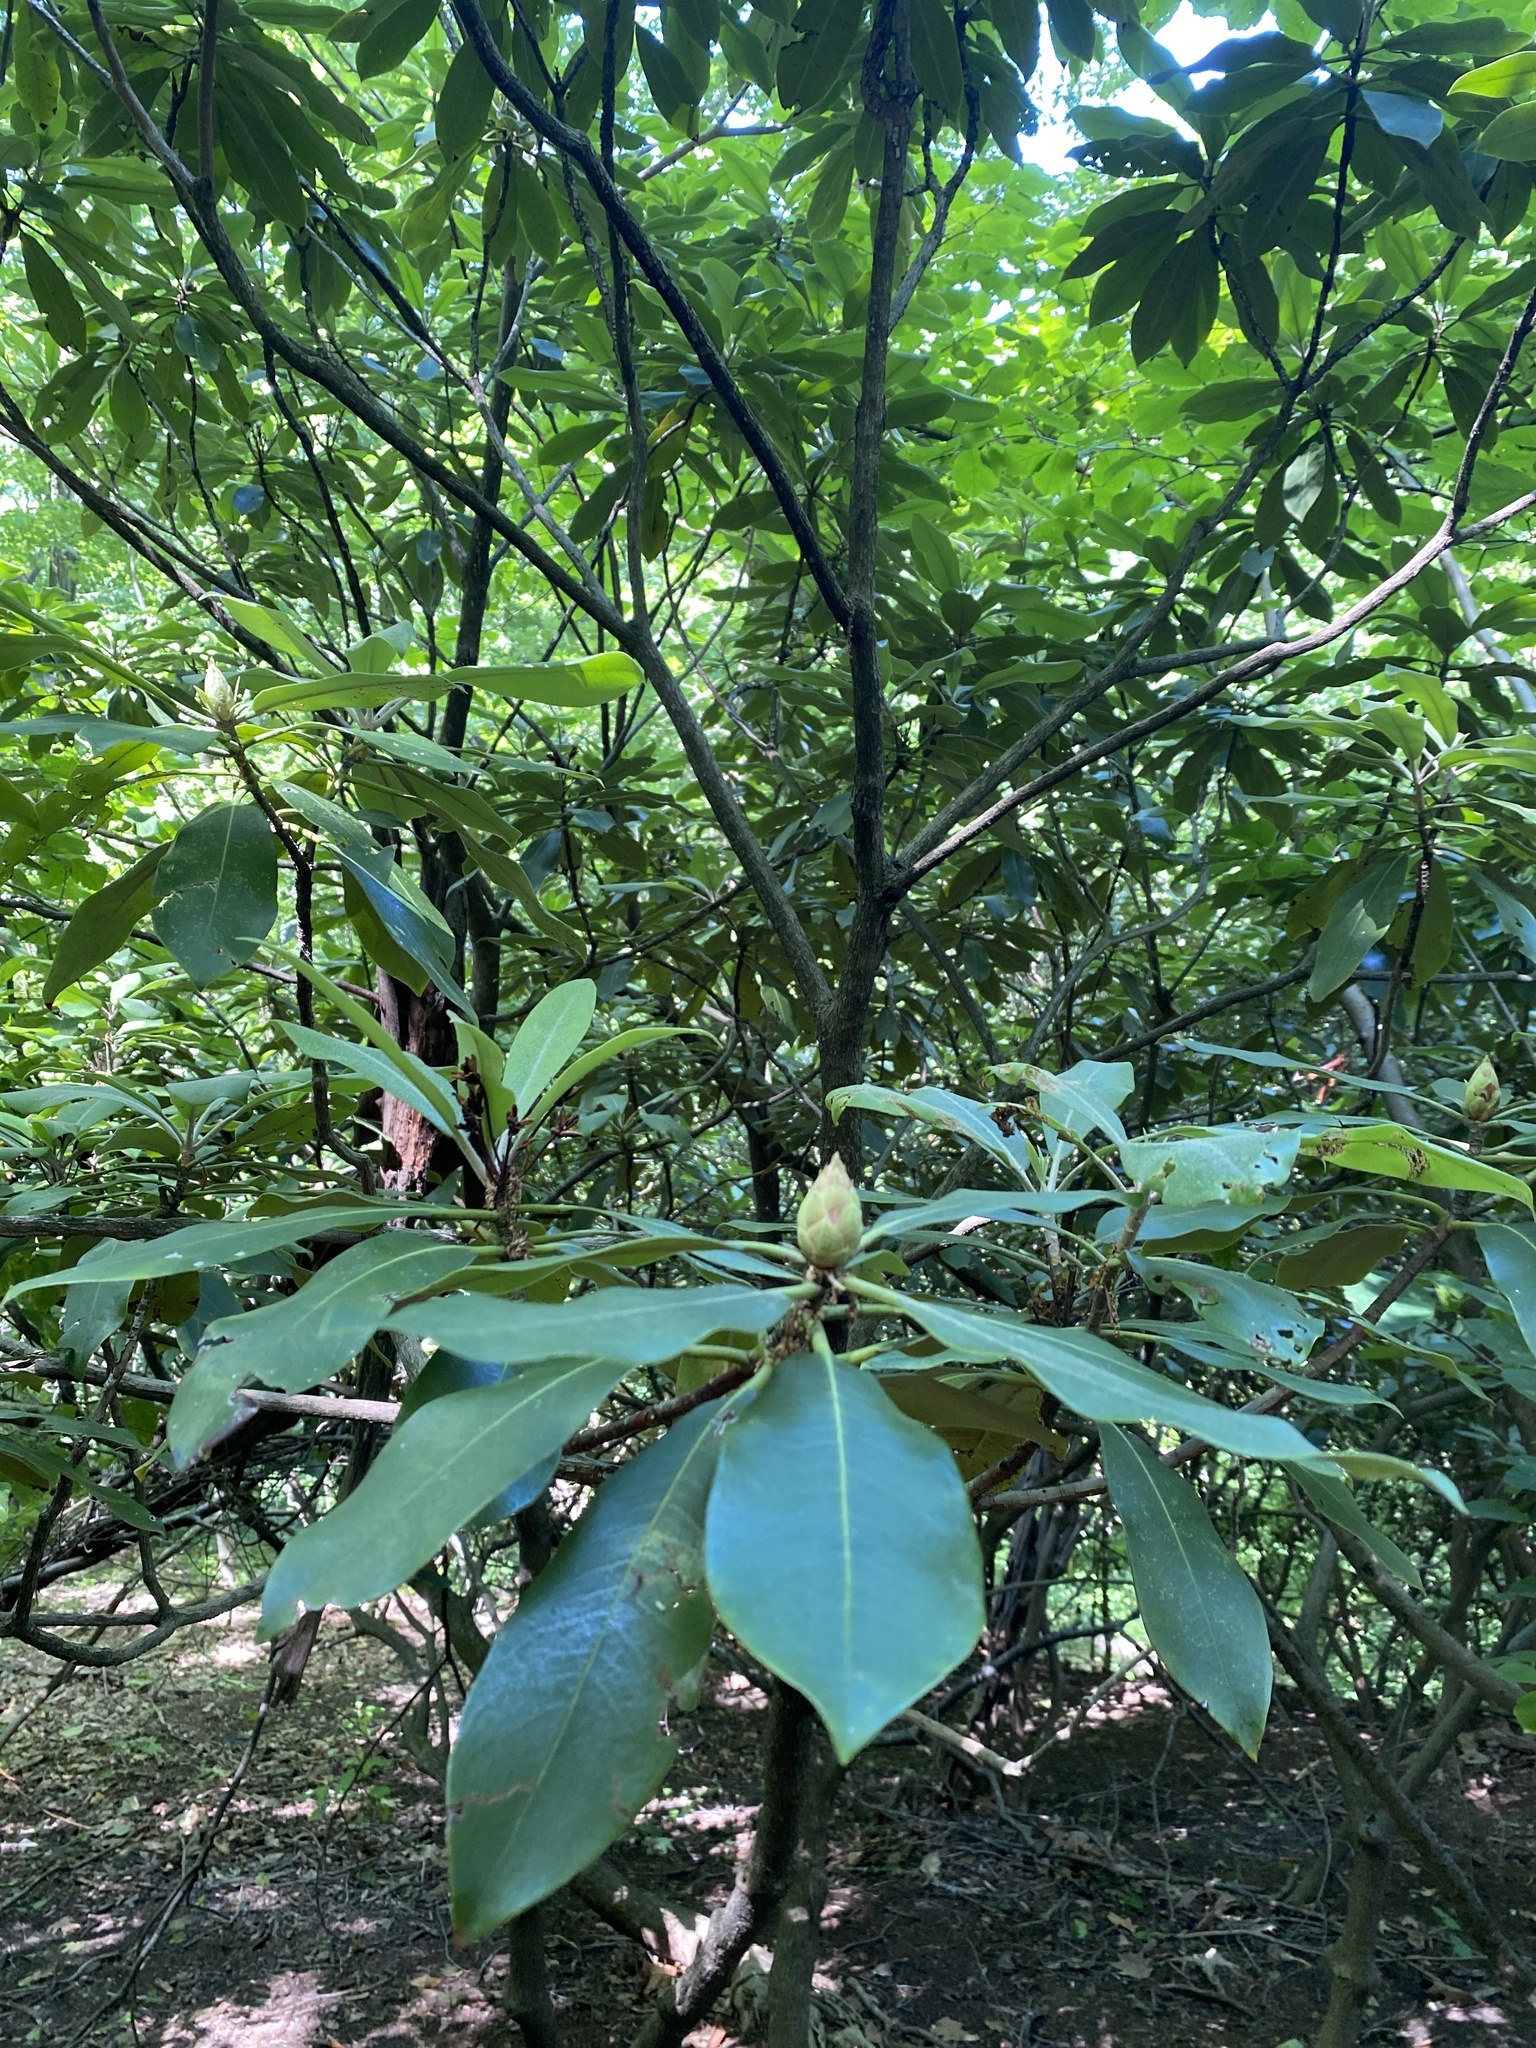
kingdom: Plantae
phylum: Tracheophyta
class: Magnoliopsida
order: Ericales
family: Ericaceae
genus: Rhododendron
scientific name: Rhododendron maximum
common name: Great rhododendron
